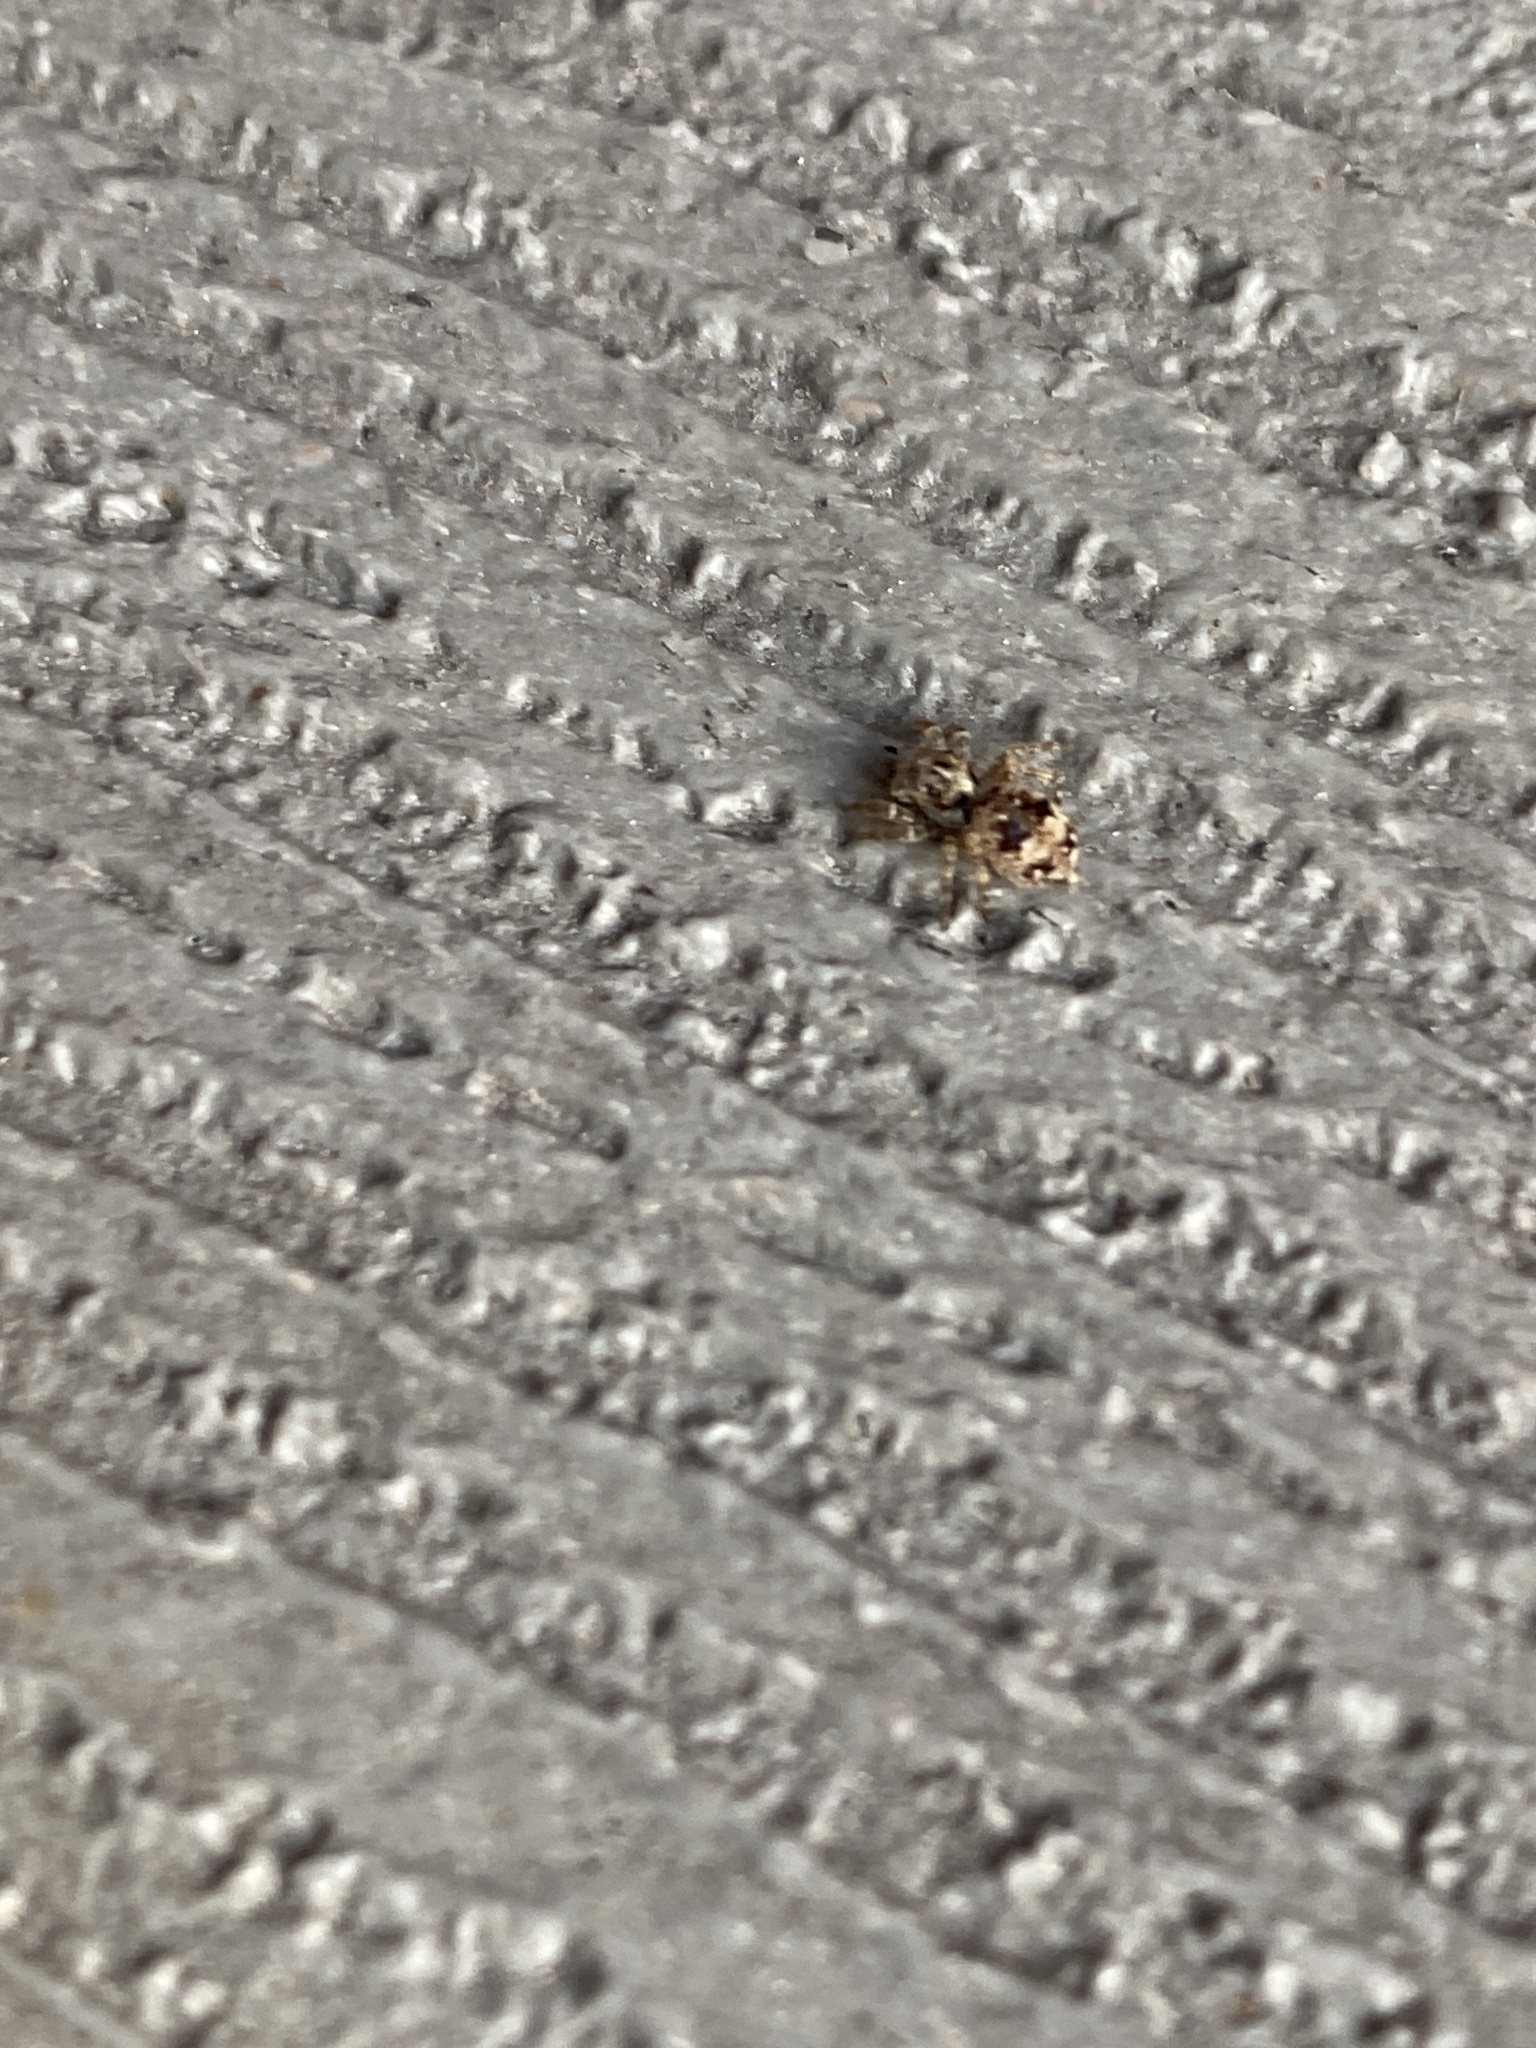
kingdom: Animalia
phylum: Arthropoda
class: Arachnida
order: Araneae
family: Salticidae
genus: Attulus
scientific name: Attulus fasciger
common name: Asiatic wall jumping spider
